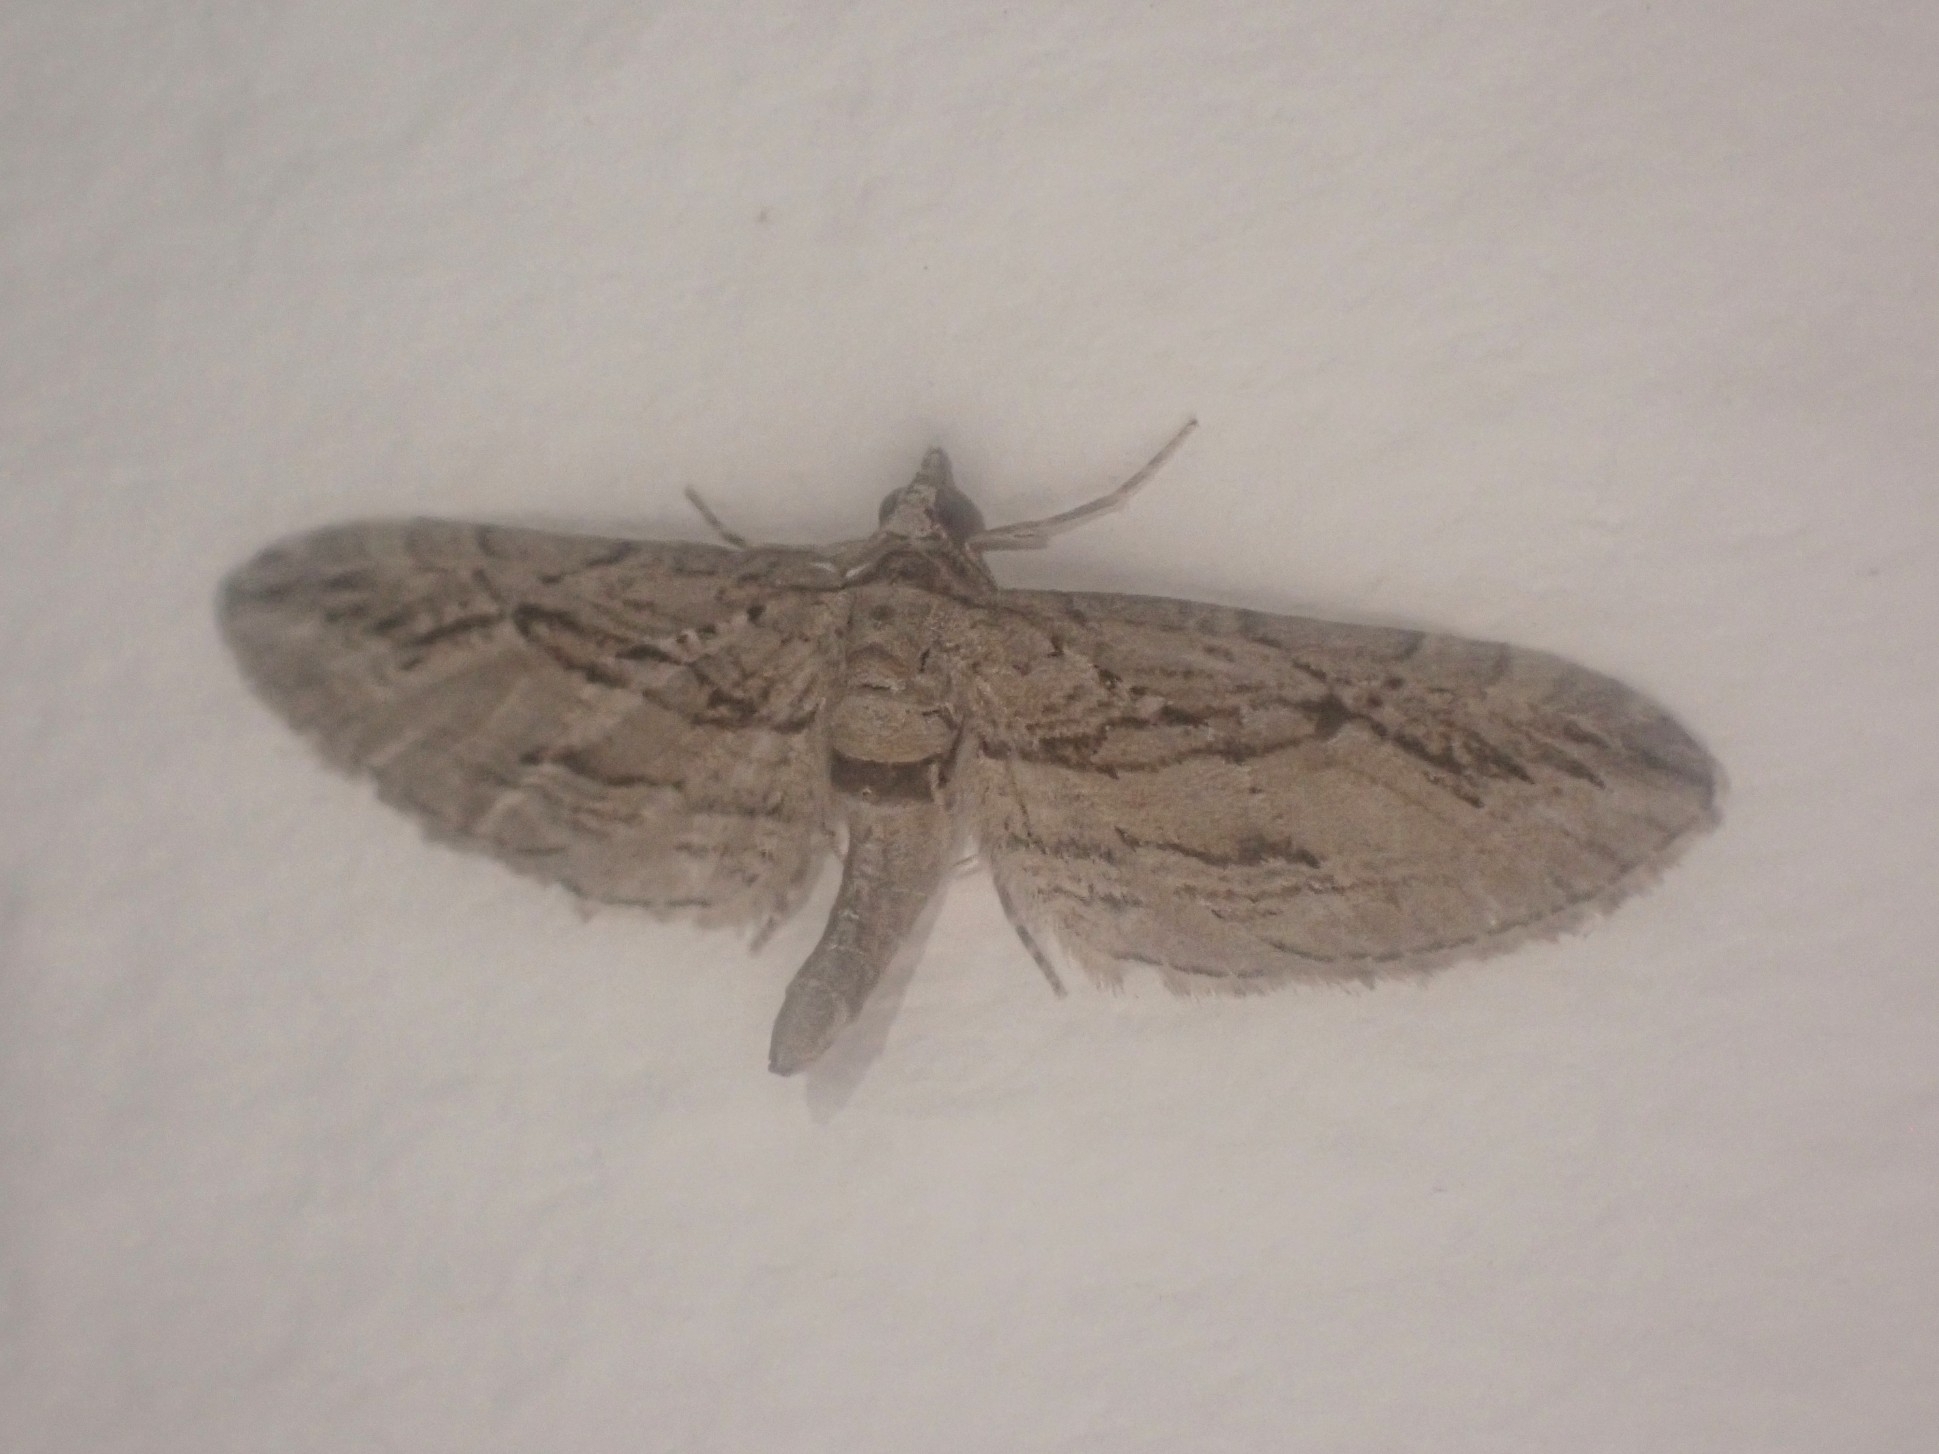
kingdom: Animalia
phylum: Arthropoda
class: Insecta
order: Lepidoptera
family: Geometridae
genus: Eupithecia
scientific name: Eupithecia phoeniceata
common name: Cypress pug
